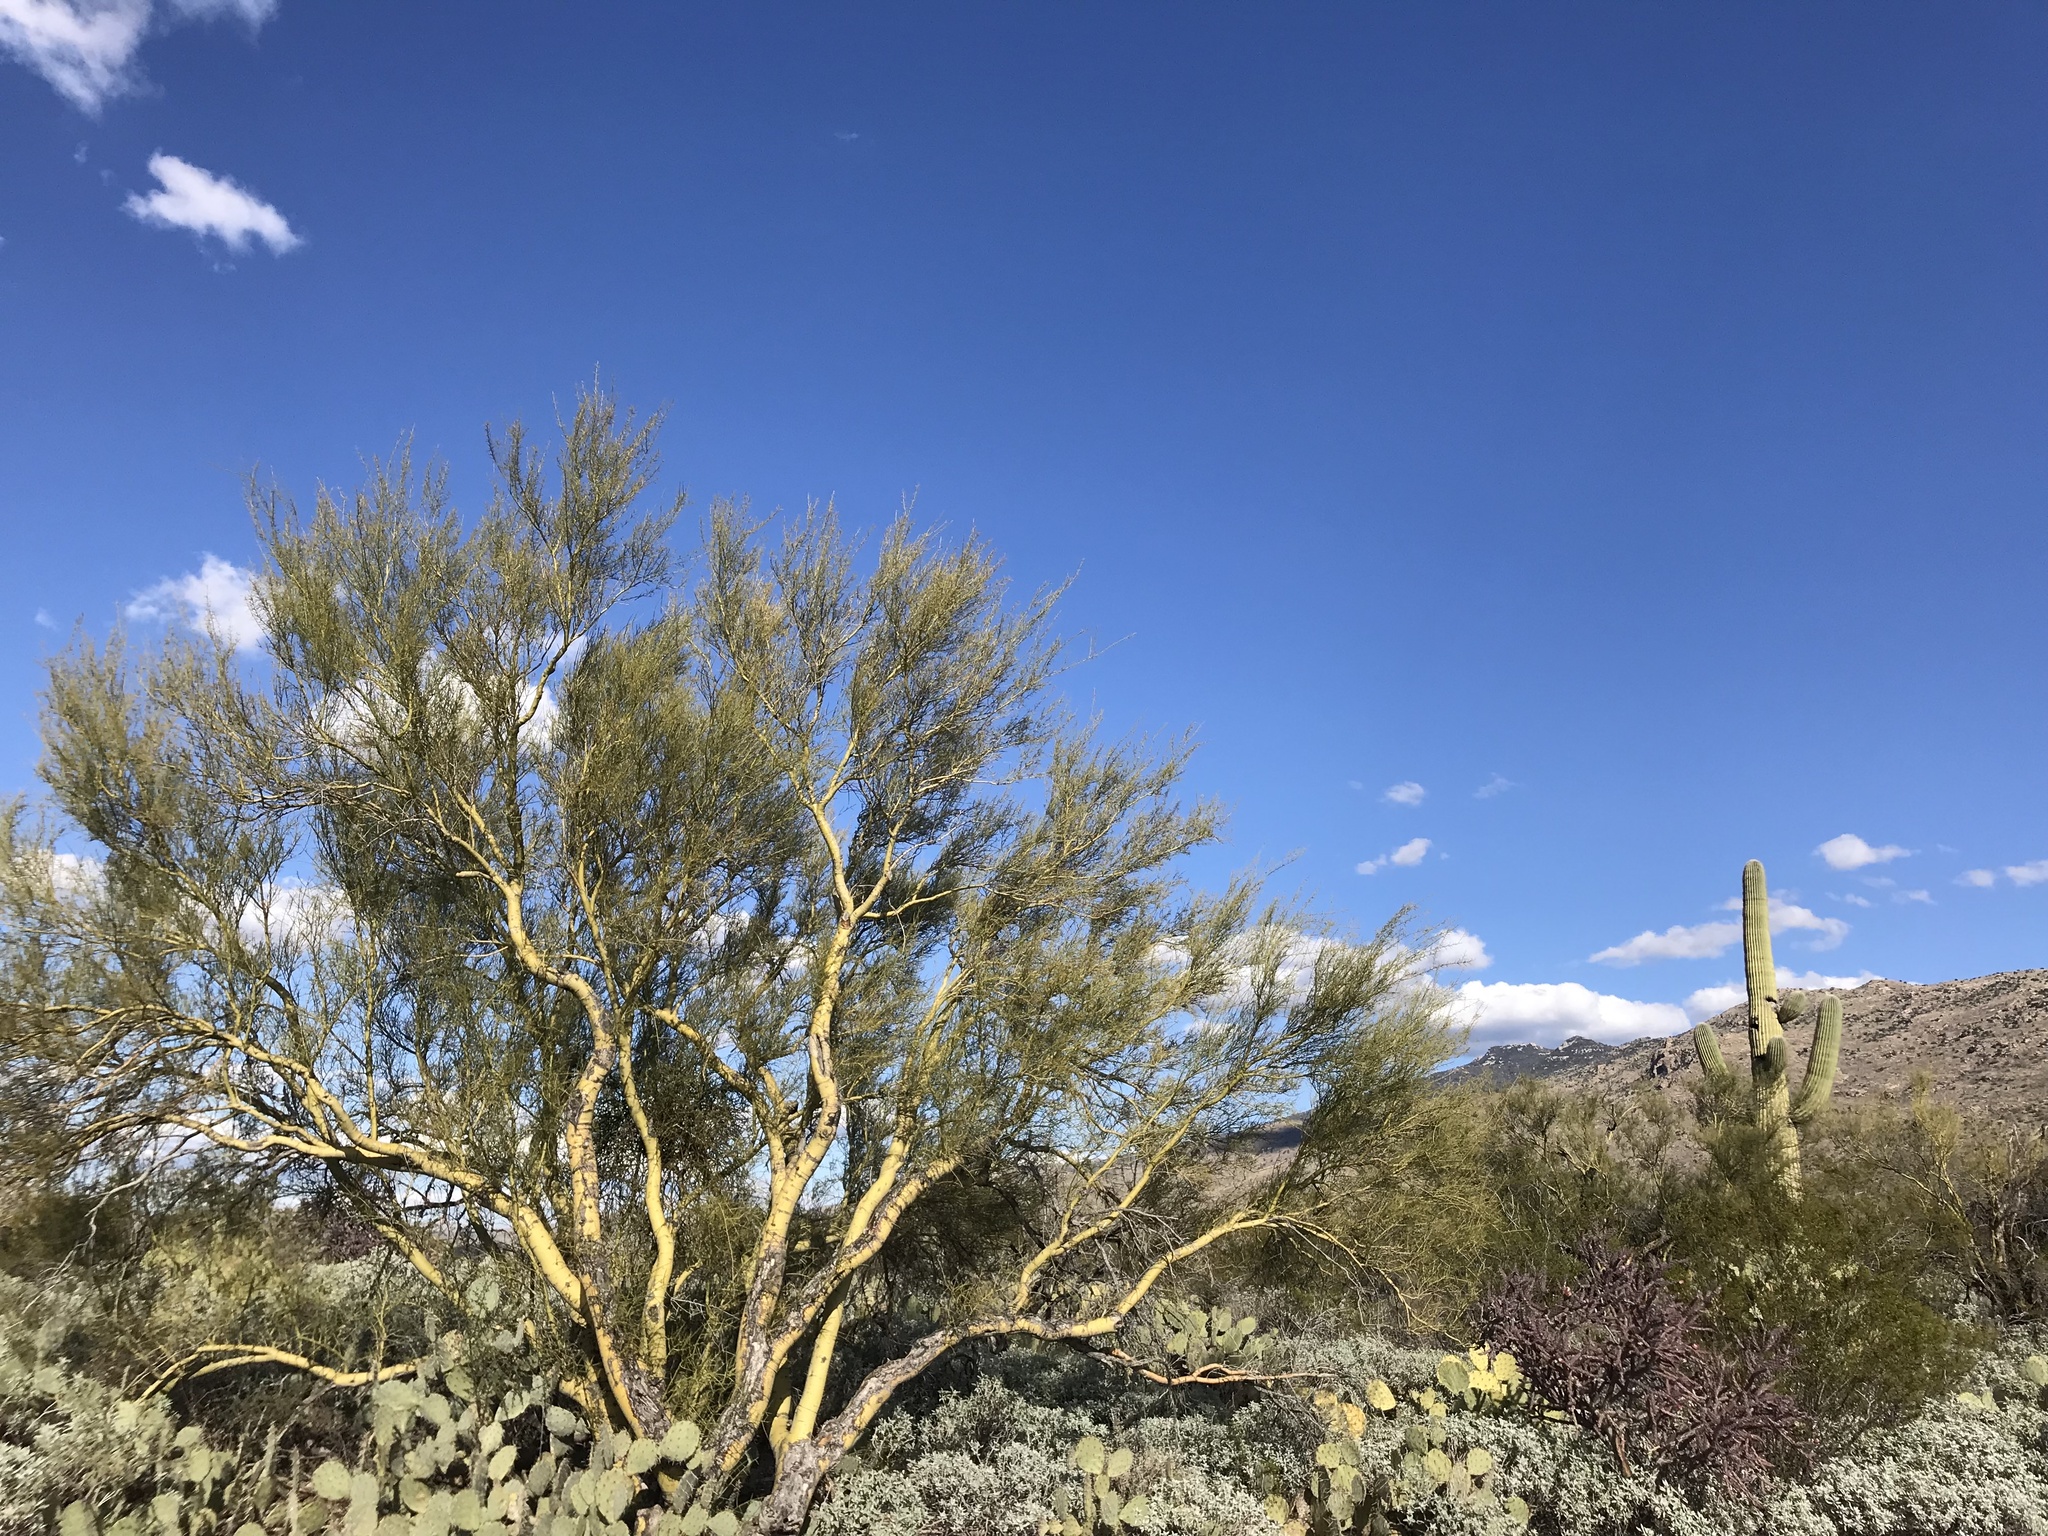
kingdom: Plantae
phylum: Tracheophyta
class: Magnoliopsida
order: Fabales
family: Fabaceae
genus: Parkinsonia
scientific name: Parkinsonia microphylla
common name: Yellow paloverde
